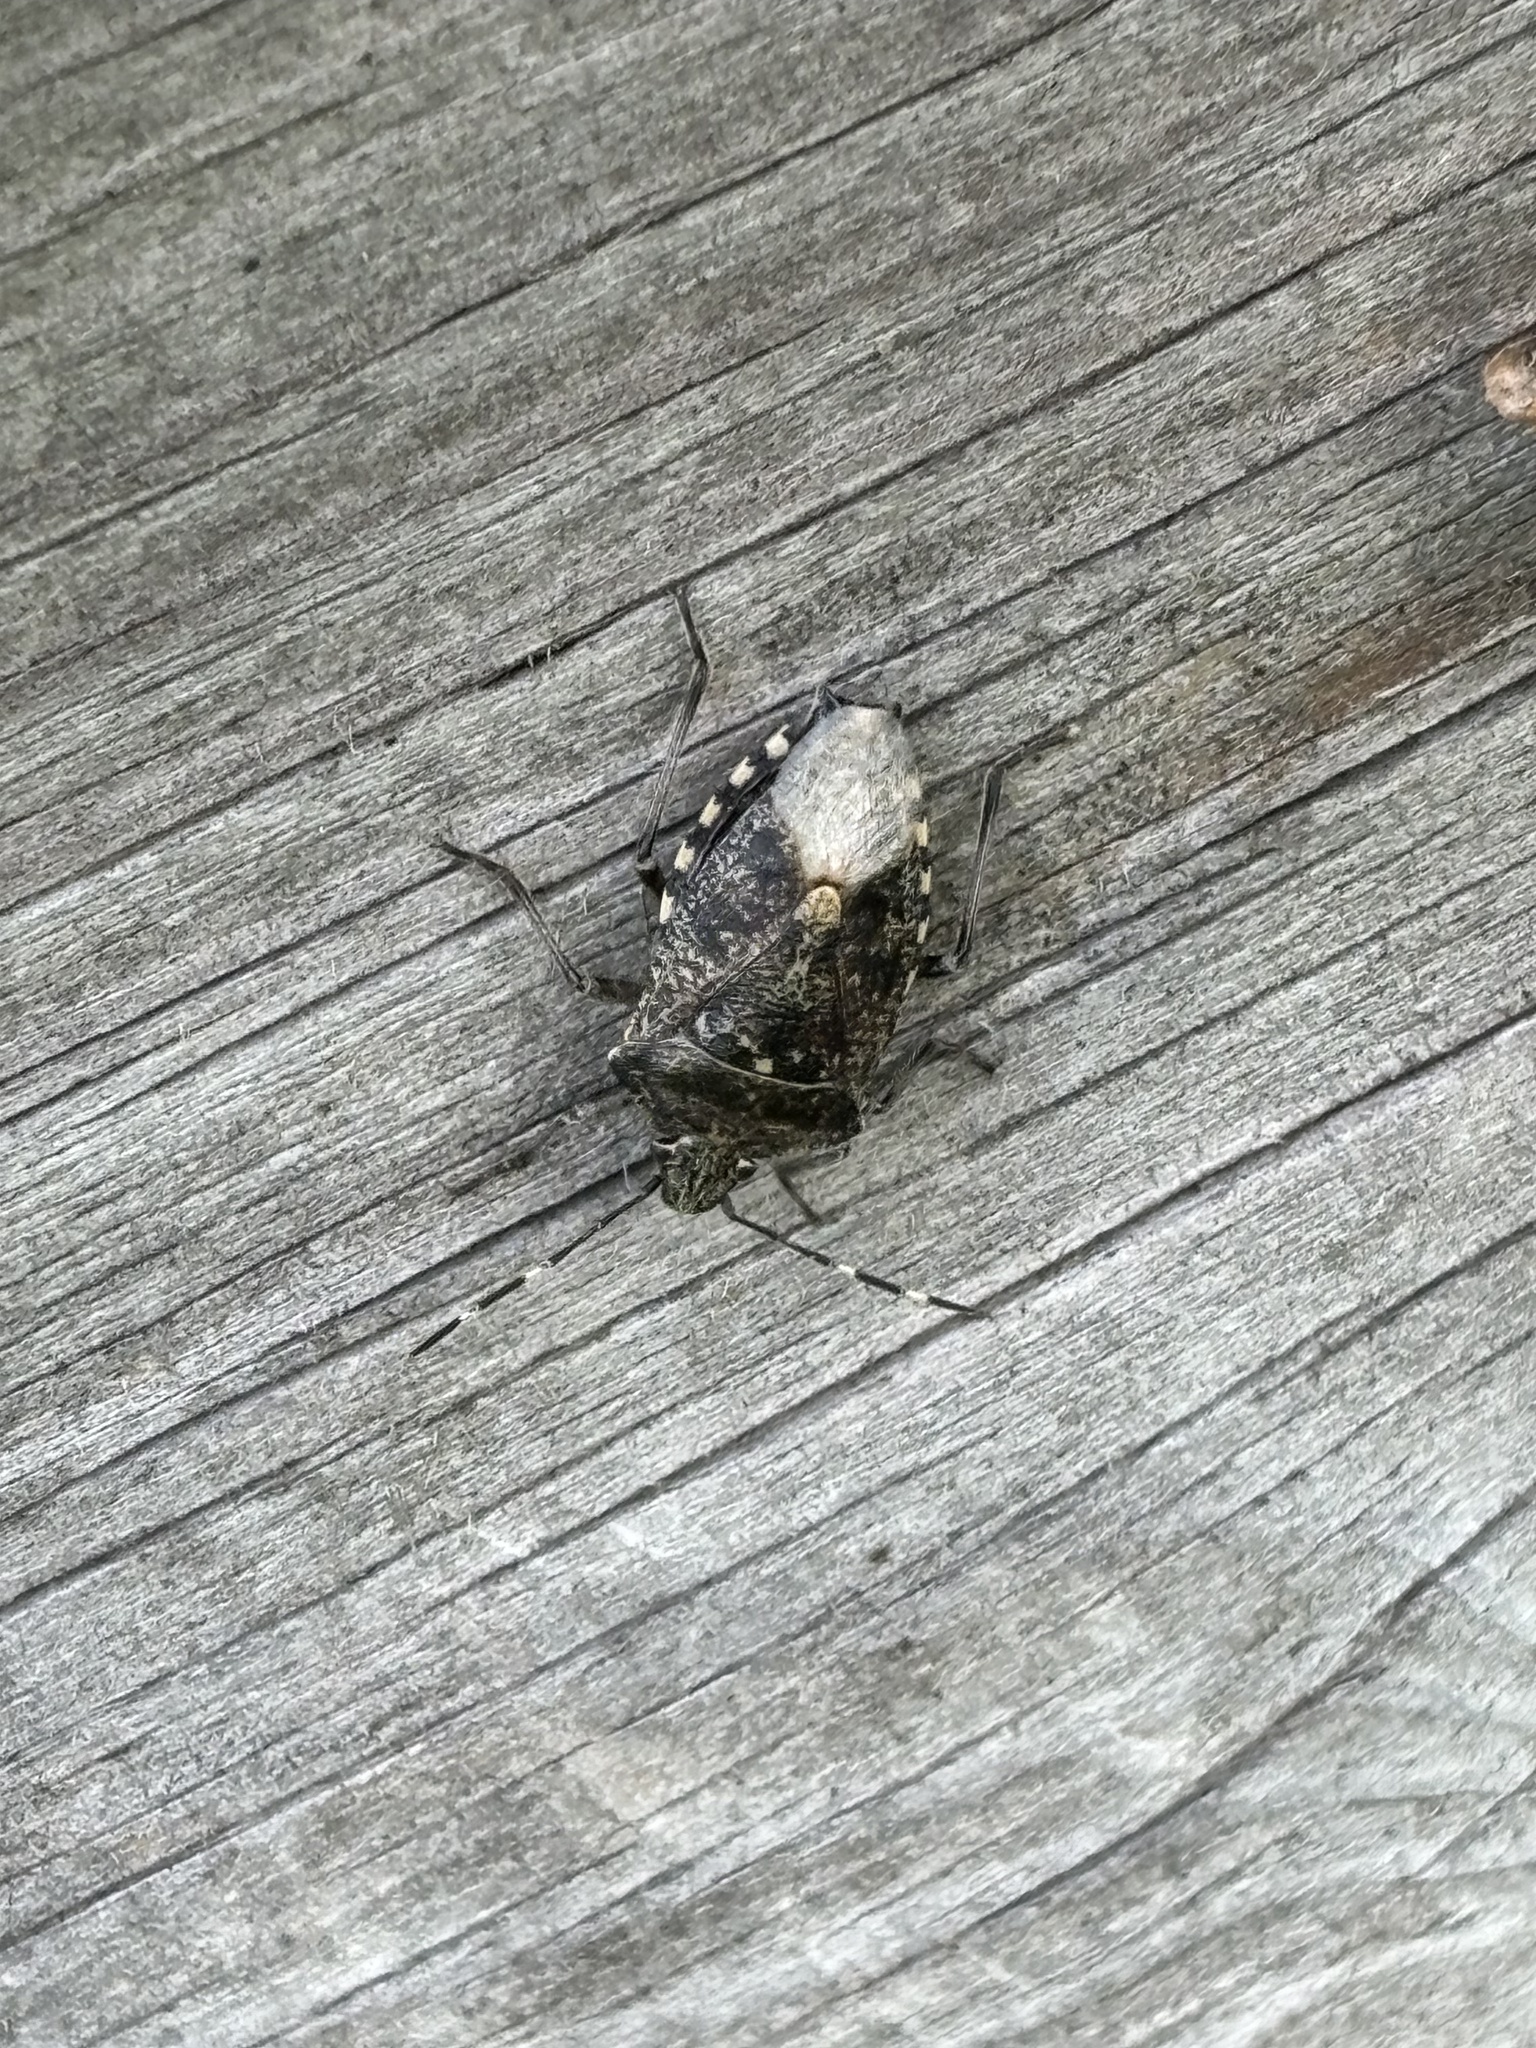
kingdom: Animalia
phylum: Arthropoda
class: Insecta
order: Hemiptera
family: Pentatomidae
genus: Rhaphigaster
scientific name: Rhaphigaster nebulosa
